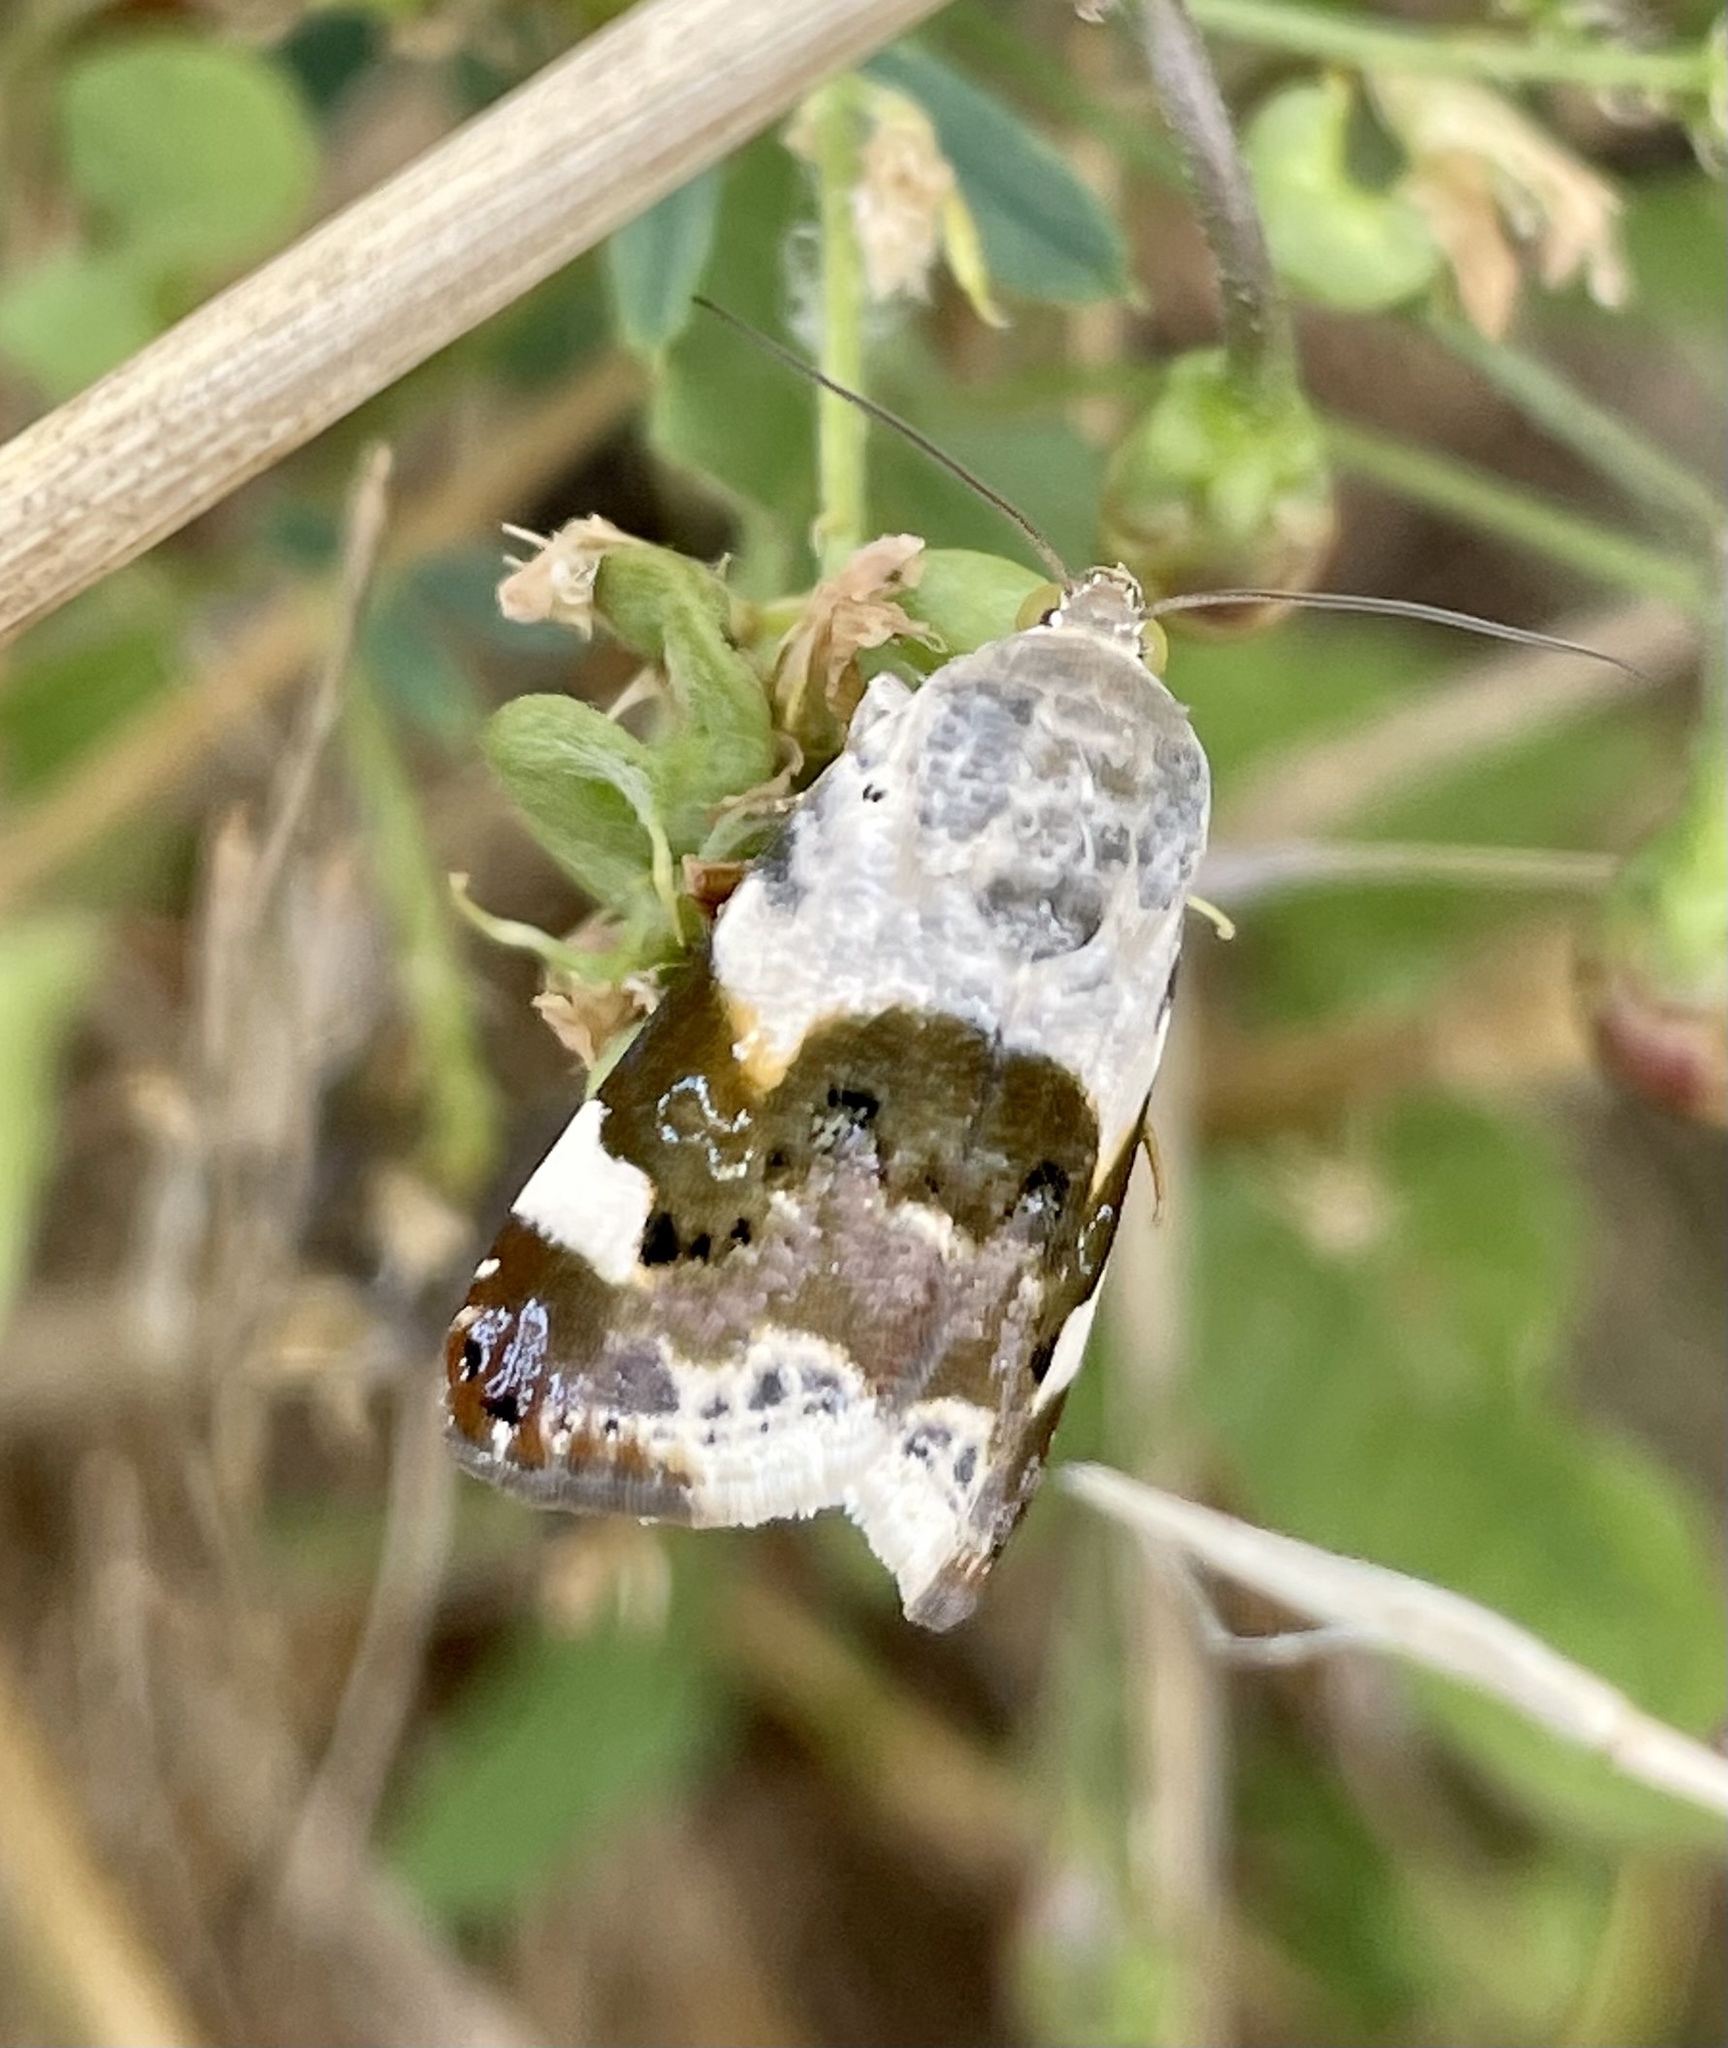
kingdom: Animalia
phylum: Arthropoda
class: Insecta
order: Lepidoptera
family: Noctuidae
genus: Acontia
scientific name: Acontia lucida
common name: Pale shoulder
